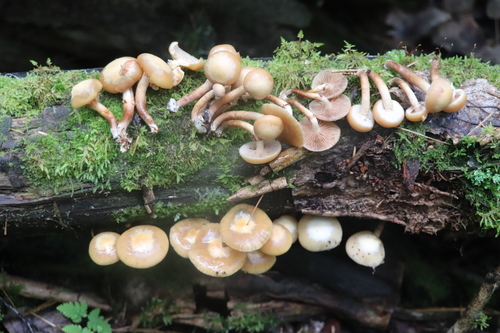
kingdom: Fungi
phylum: Basidiomycota
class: Agaricomycetes
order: Agaricales
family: Strophariaceae
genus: Kuehneromyces
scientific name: Kuehneromyces mutabilis
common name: Sheathed woodtuft
